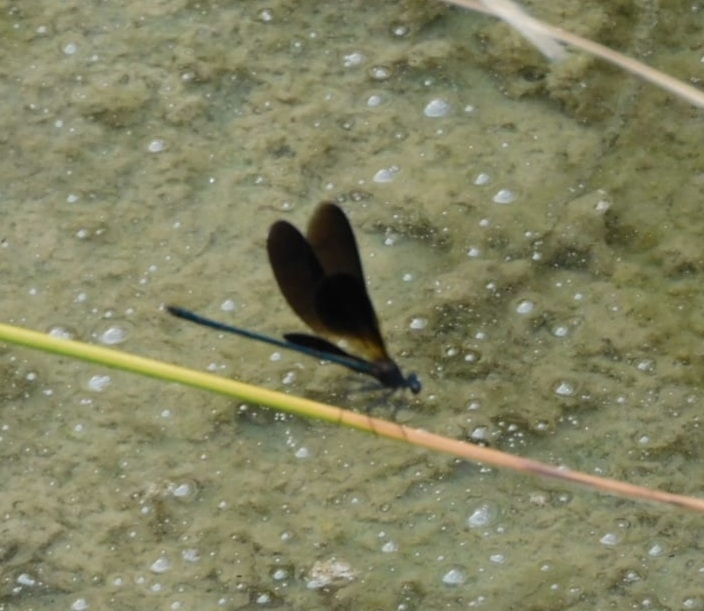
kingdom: Animalia
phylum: Arthropoda
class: Insecta
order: Odonata
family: Calopterygidae
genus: Calopteryx
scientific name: Calopteryx haemorrhoidalis
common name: Copper demoiselle
